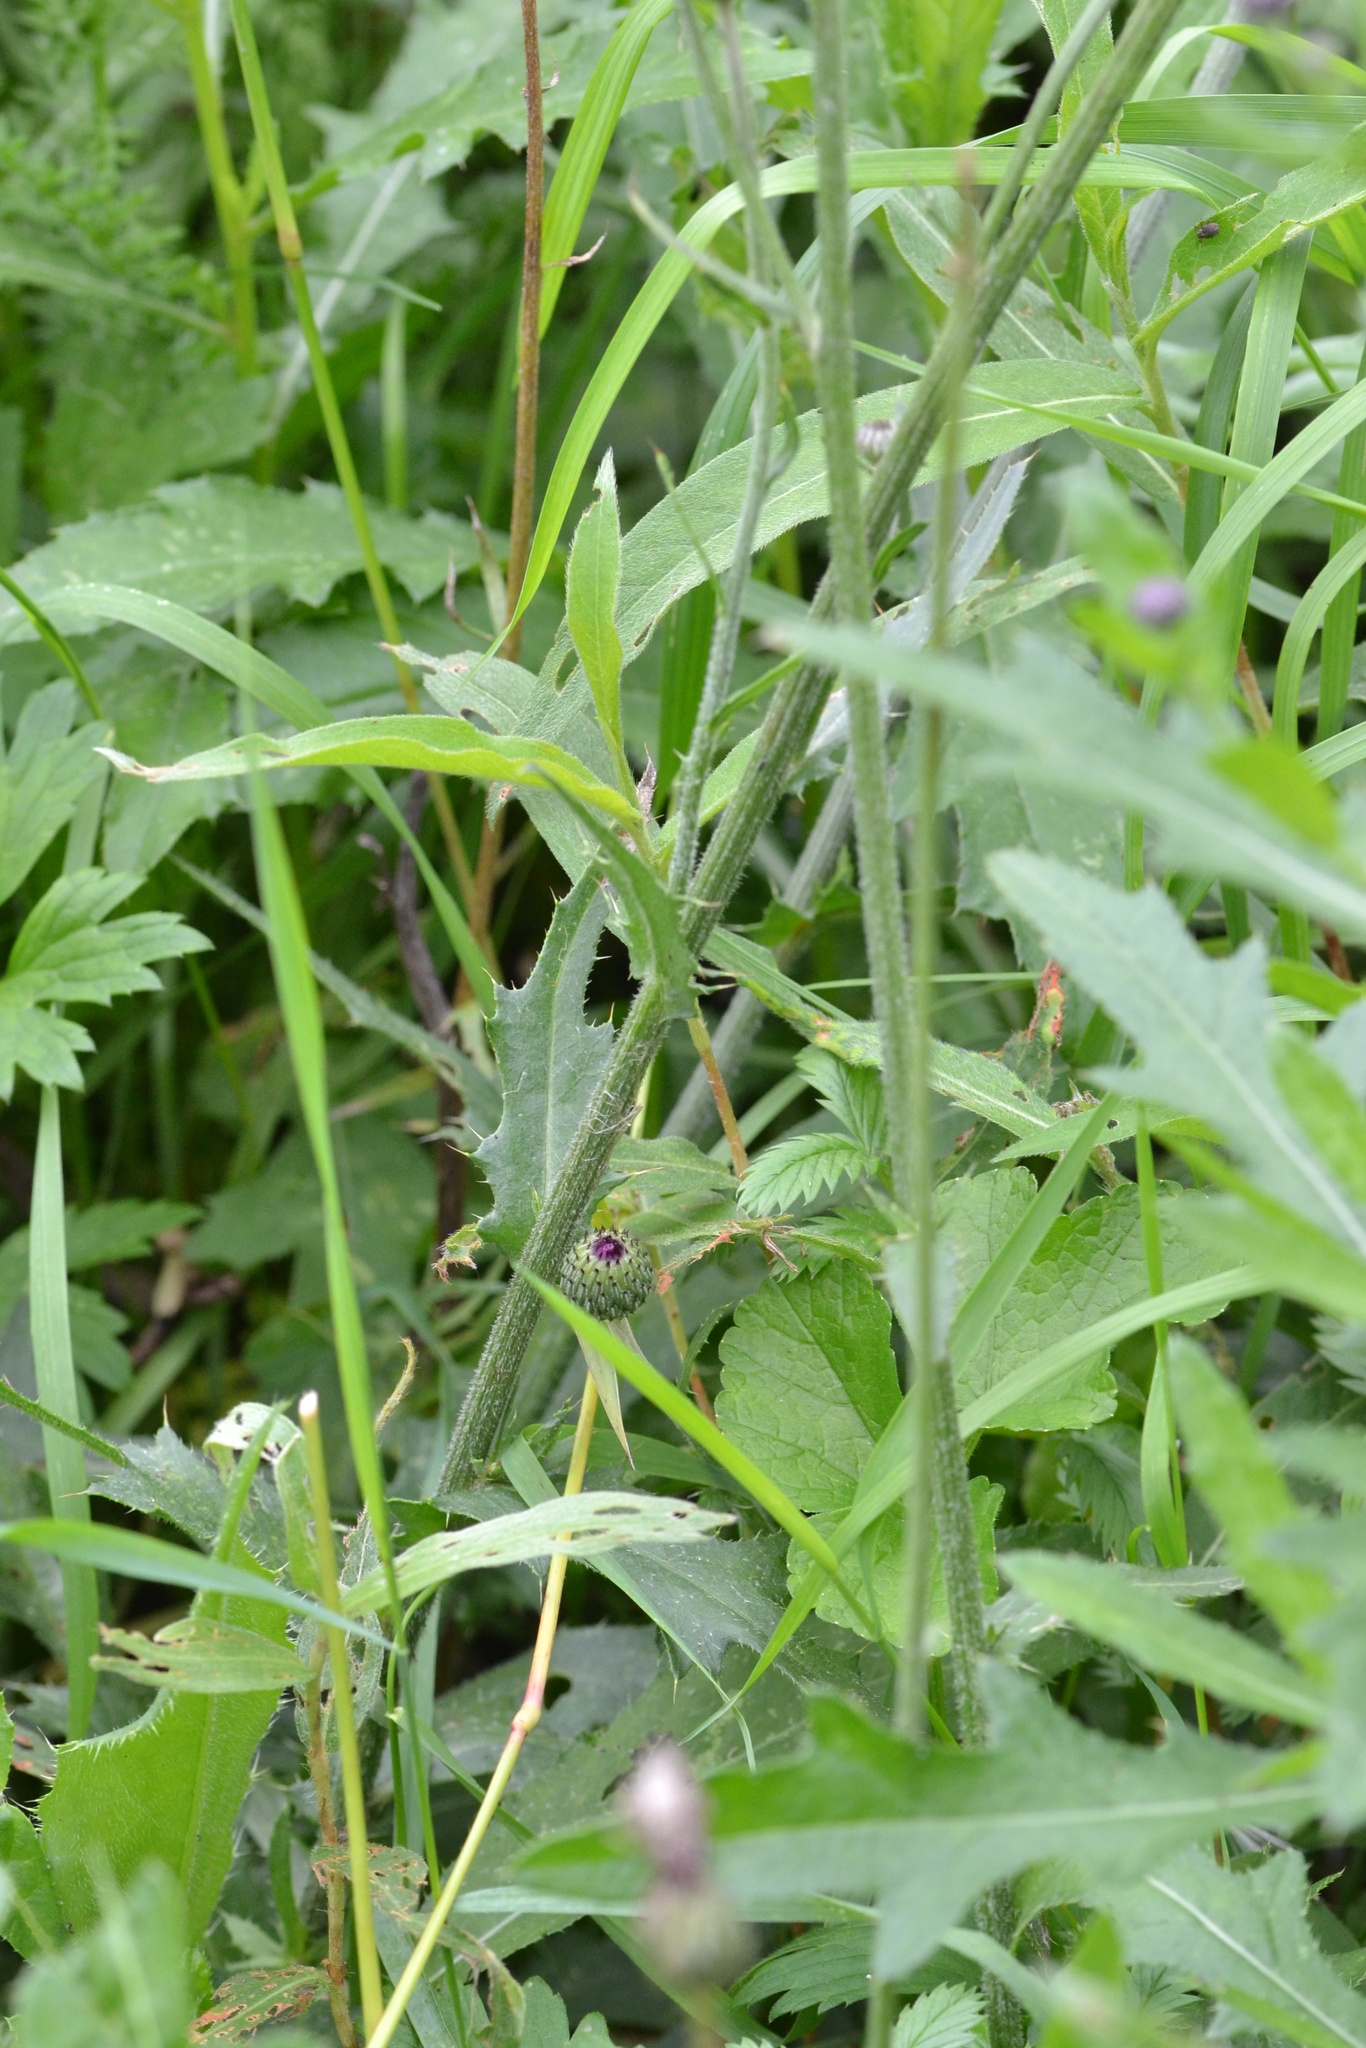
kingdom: Plantae
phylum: Tracheophyta
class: Magnoliopsida
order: Asterales
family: Asteraceae
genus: Cirsium
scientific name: Cirsium canum
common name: Queen anne's thistle
